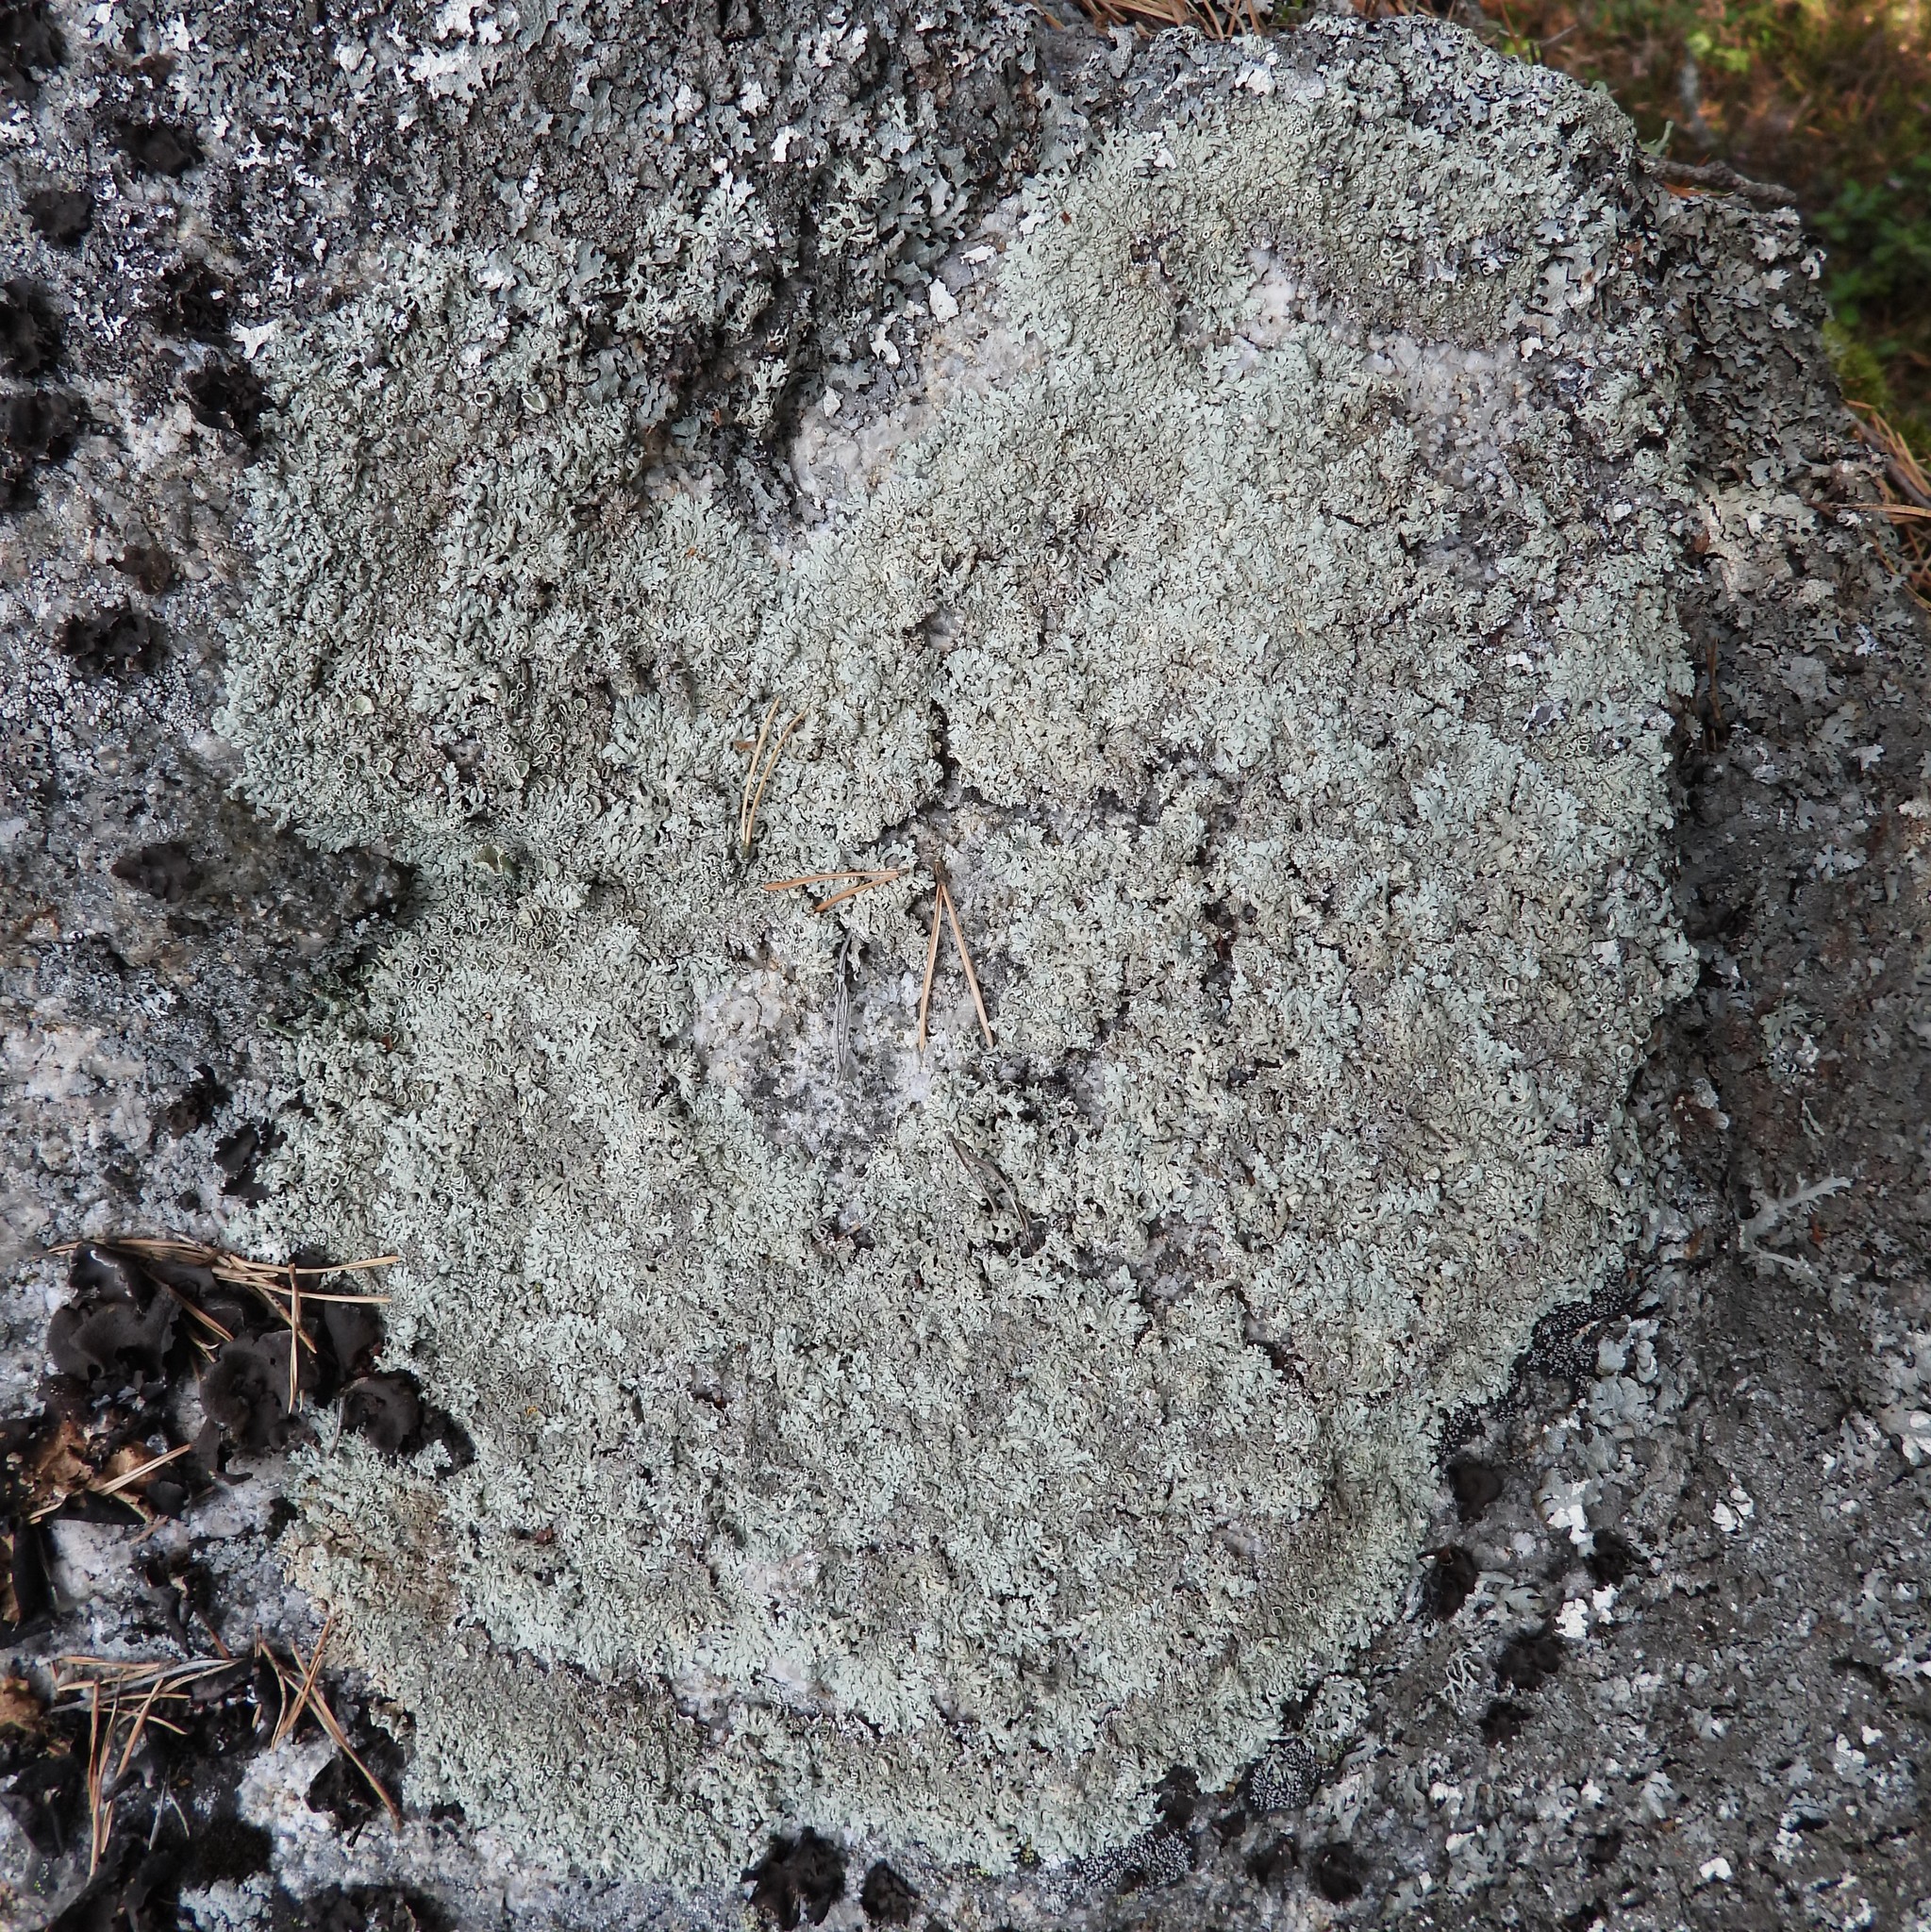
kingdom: Fungi
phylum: Ascomycota
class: Lecanoromycetes
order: Lecanorales
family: Parmeliaceae
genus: Arctoparmelia
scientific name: Arctoparmelia centrifuga
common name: Concentric ring lichen
